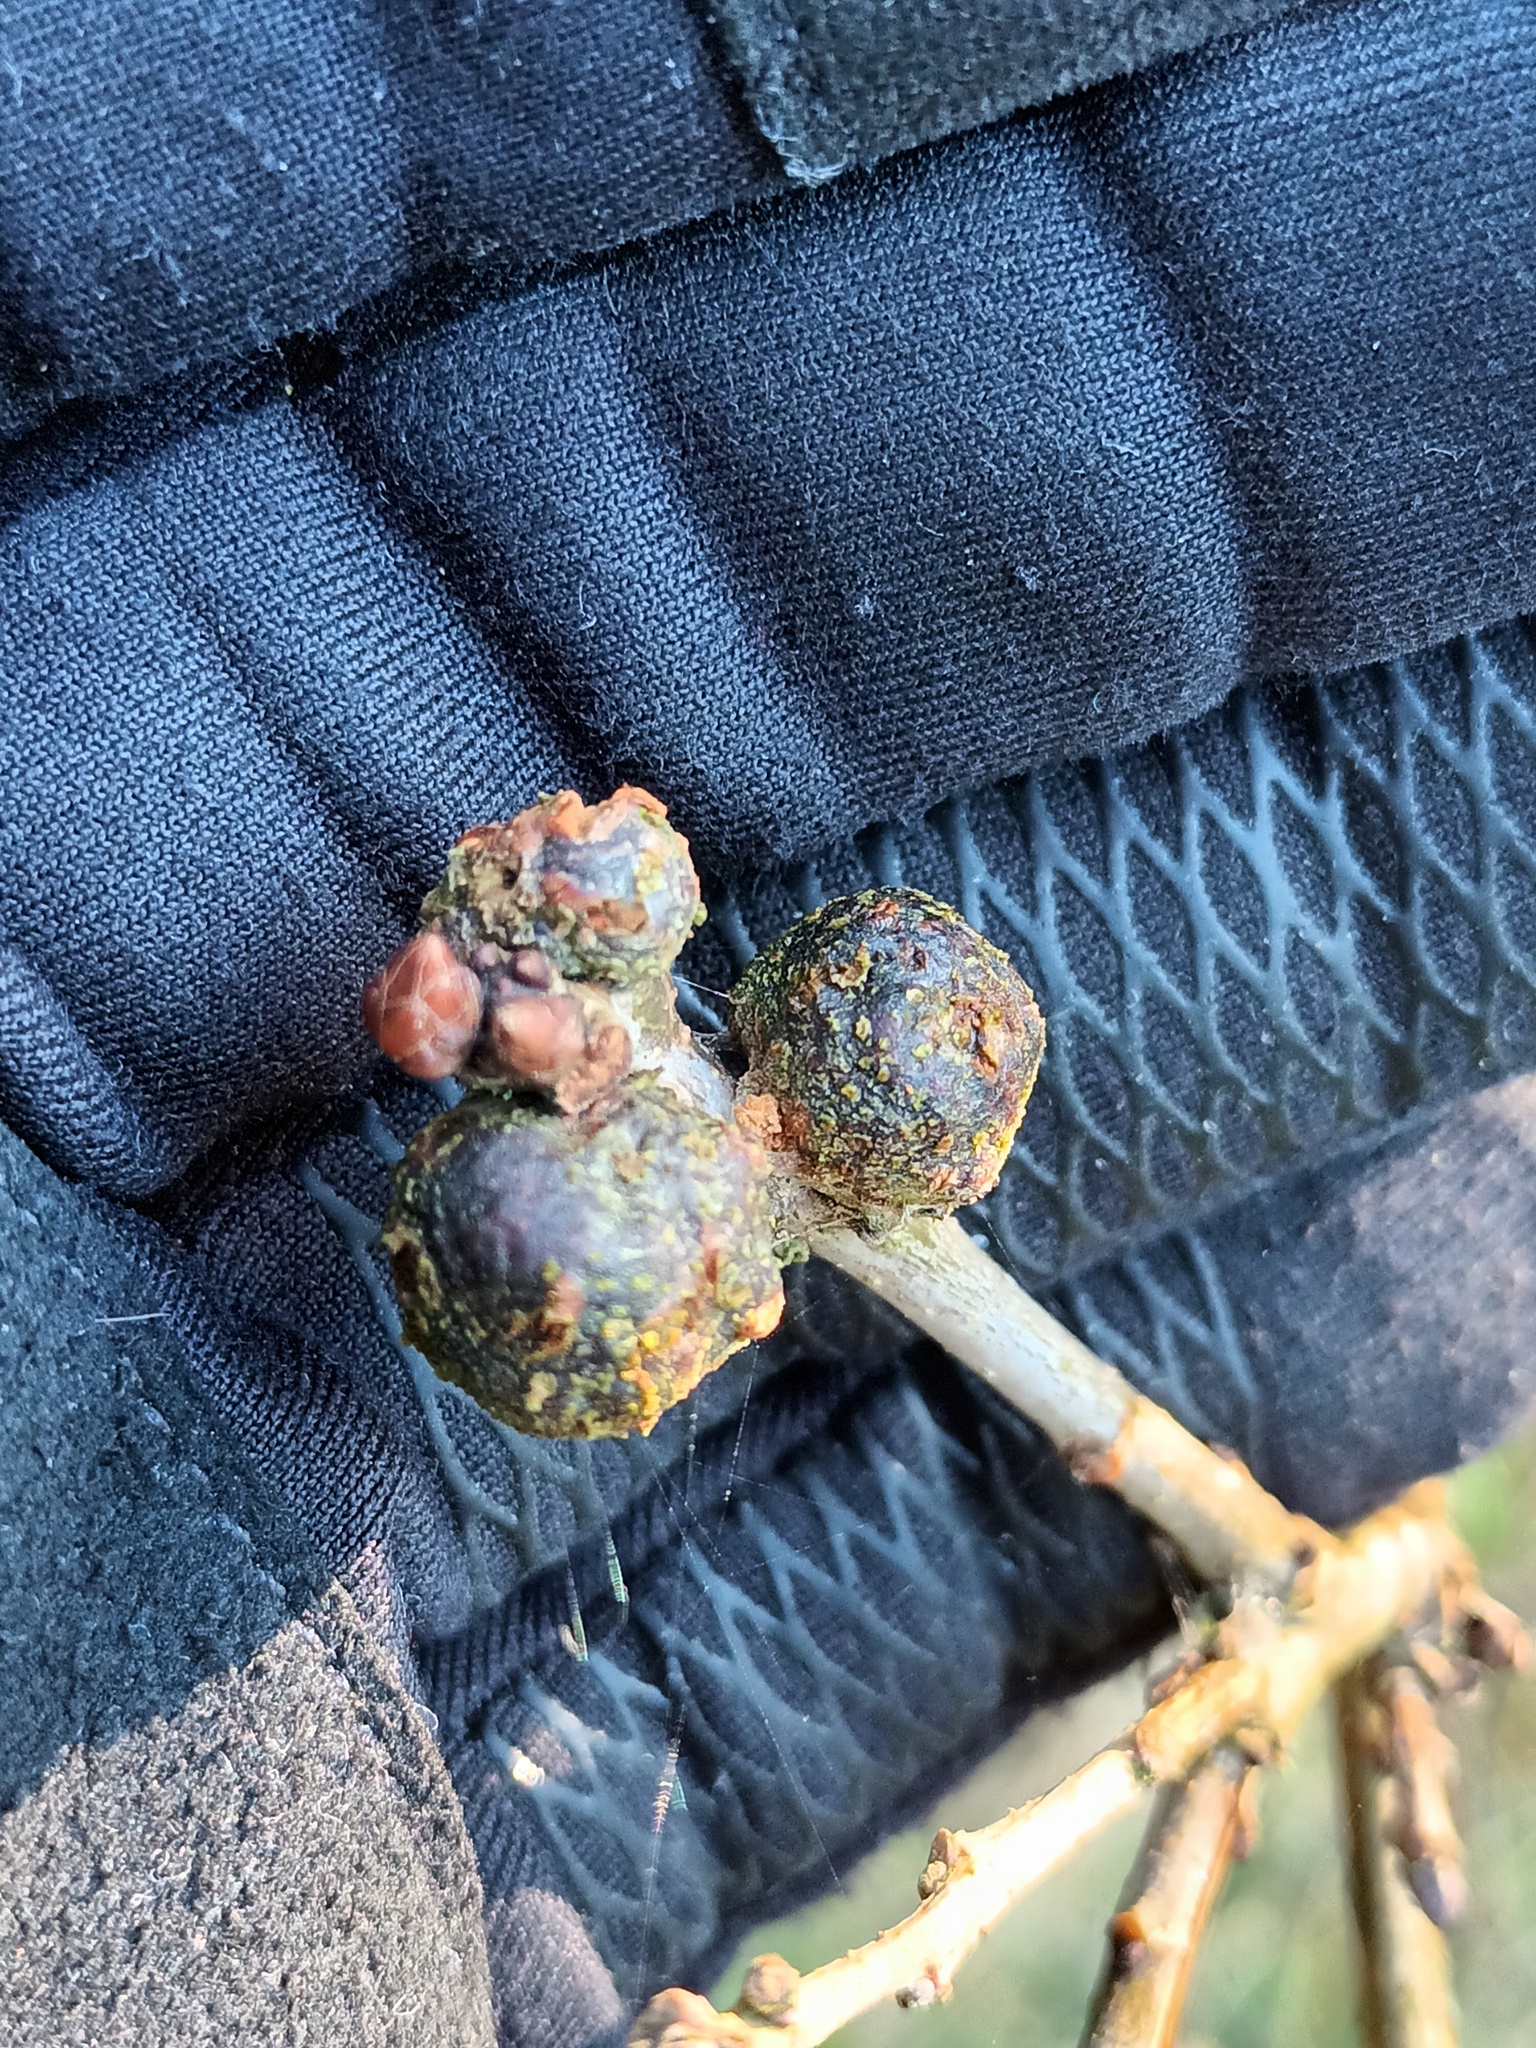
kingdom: Animalia
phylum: Arthropoda
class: Insecta
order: Hymenoptera
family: Cynipidae
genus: Andricus
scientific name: Andricus lignicolus
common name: Cola-nut gall
